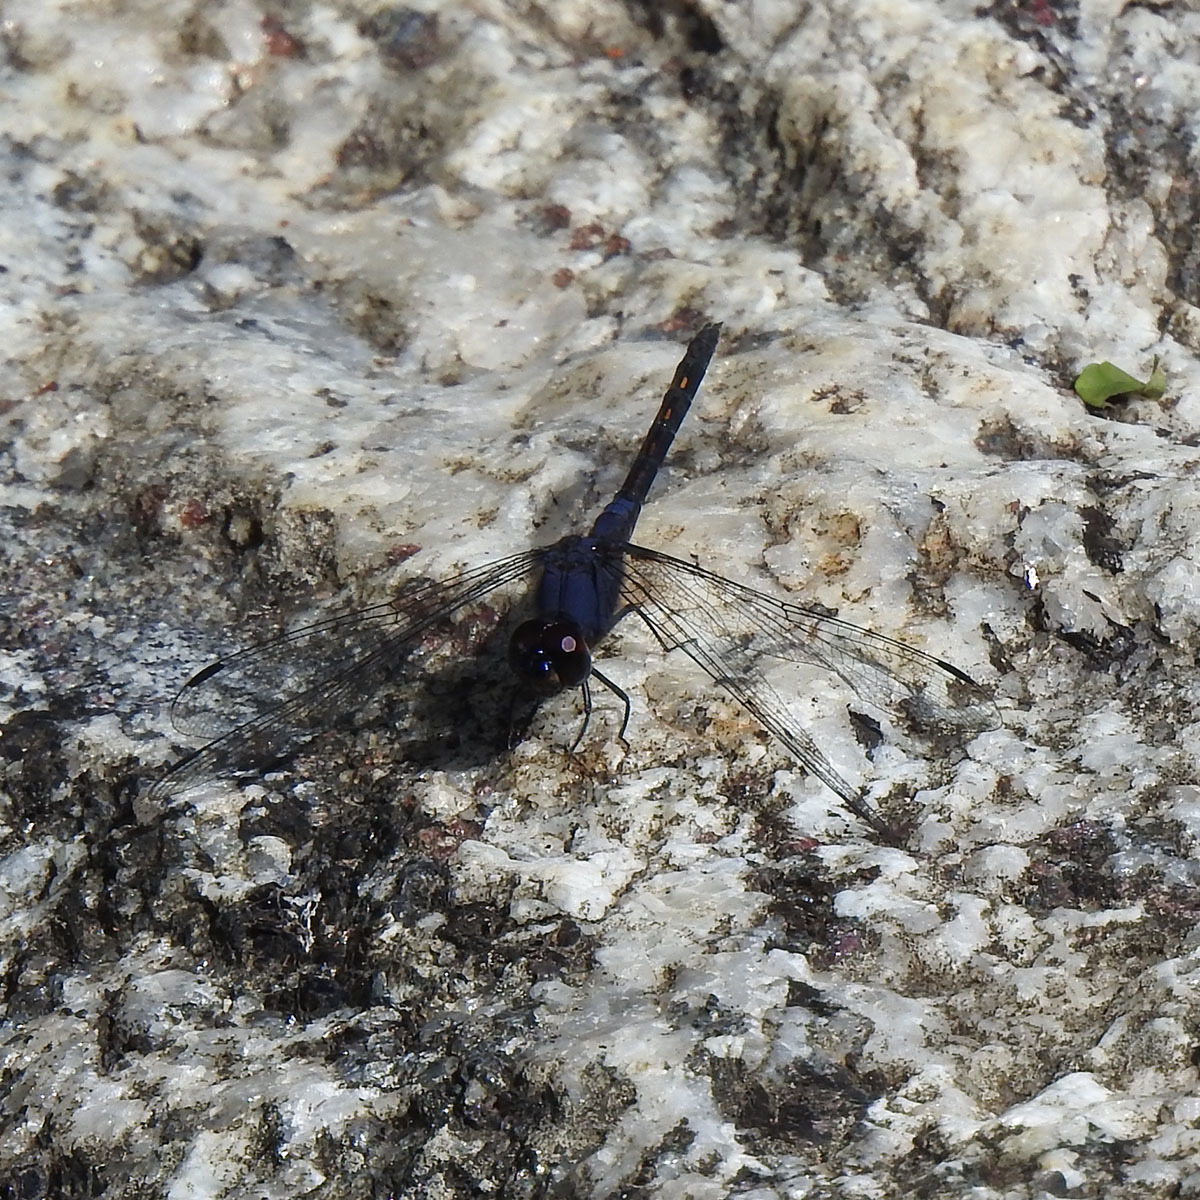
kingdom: Animalia
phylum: Arthropoda
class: Insecta
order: Odonata
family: Libellulidae
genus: Trithemis
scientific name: Trithemis festiva
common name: Indigo dropwing
